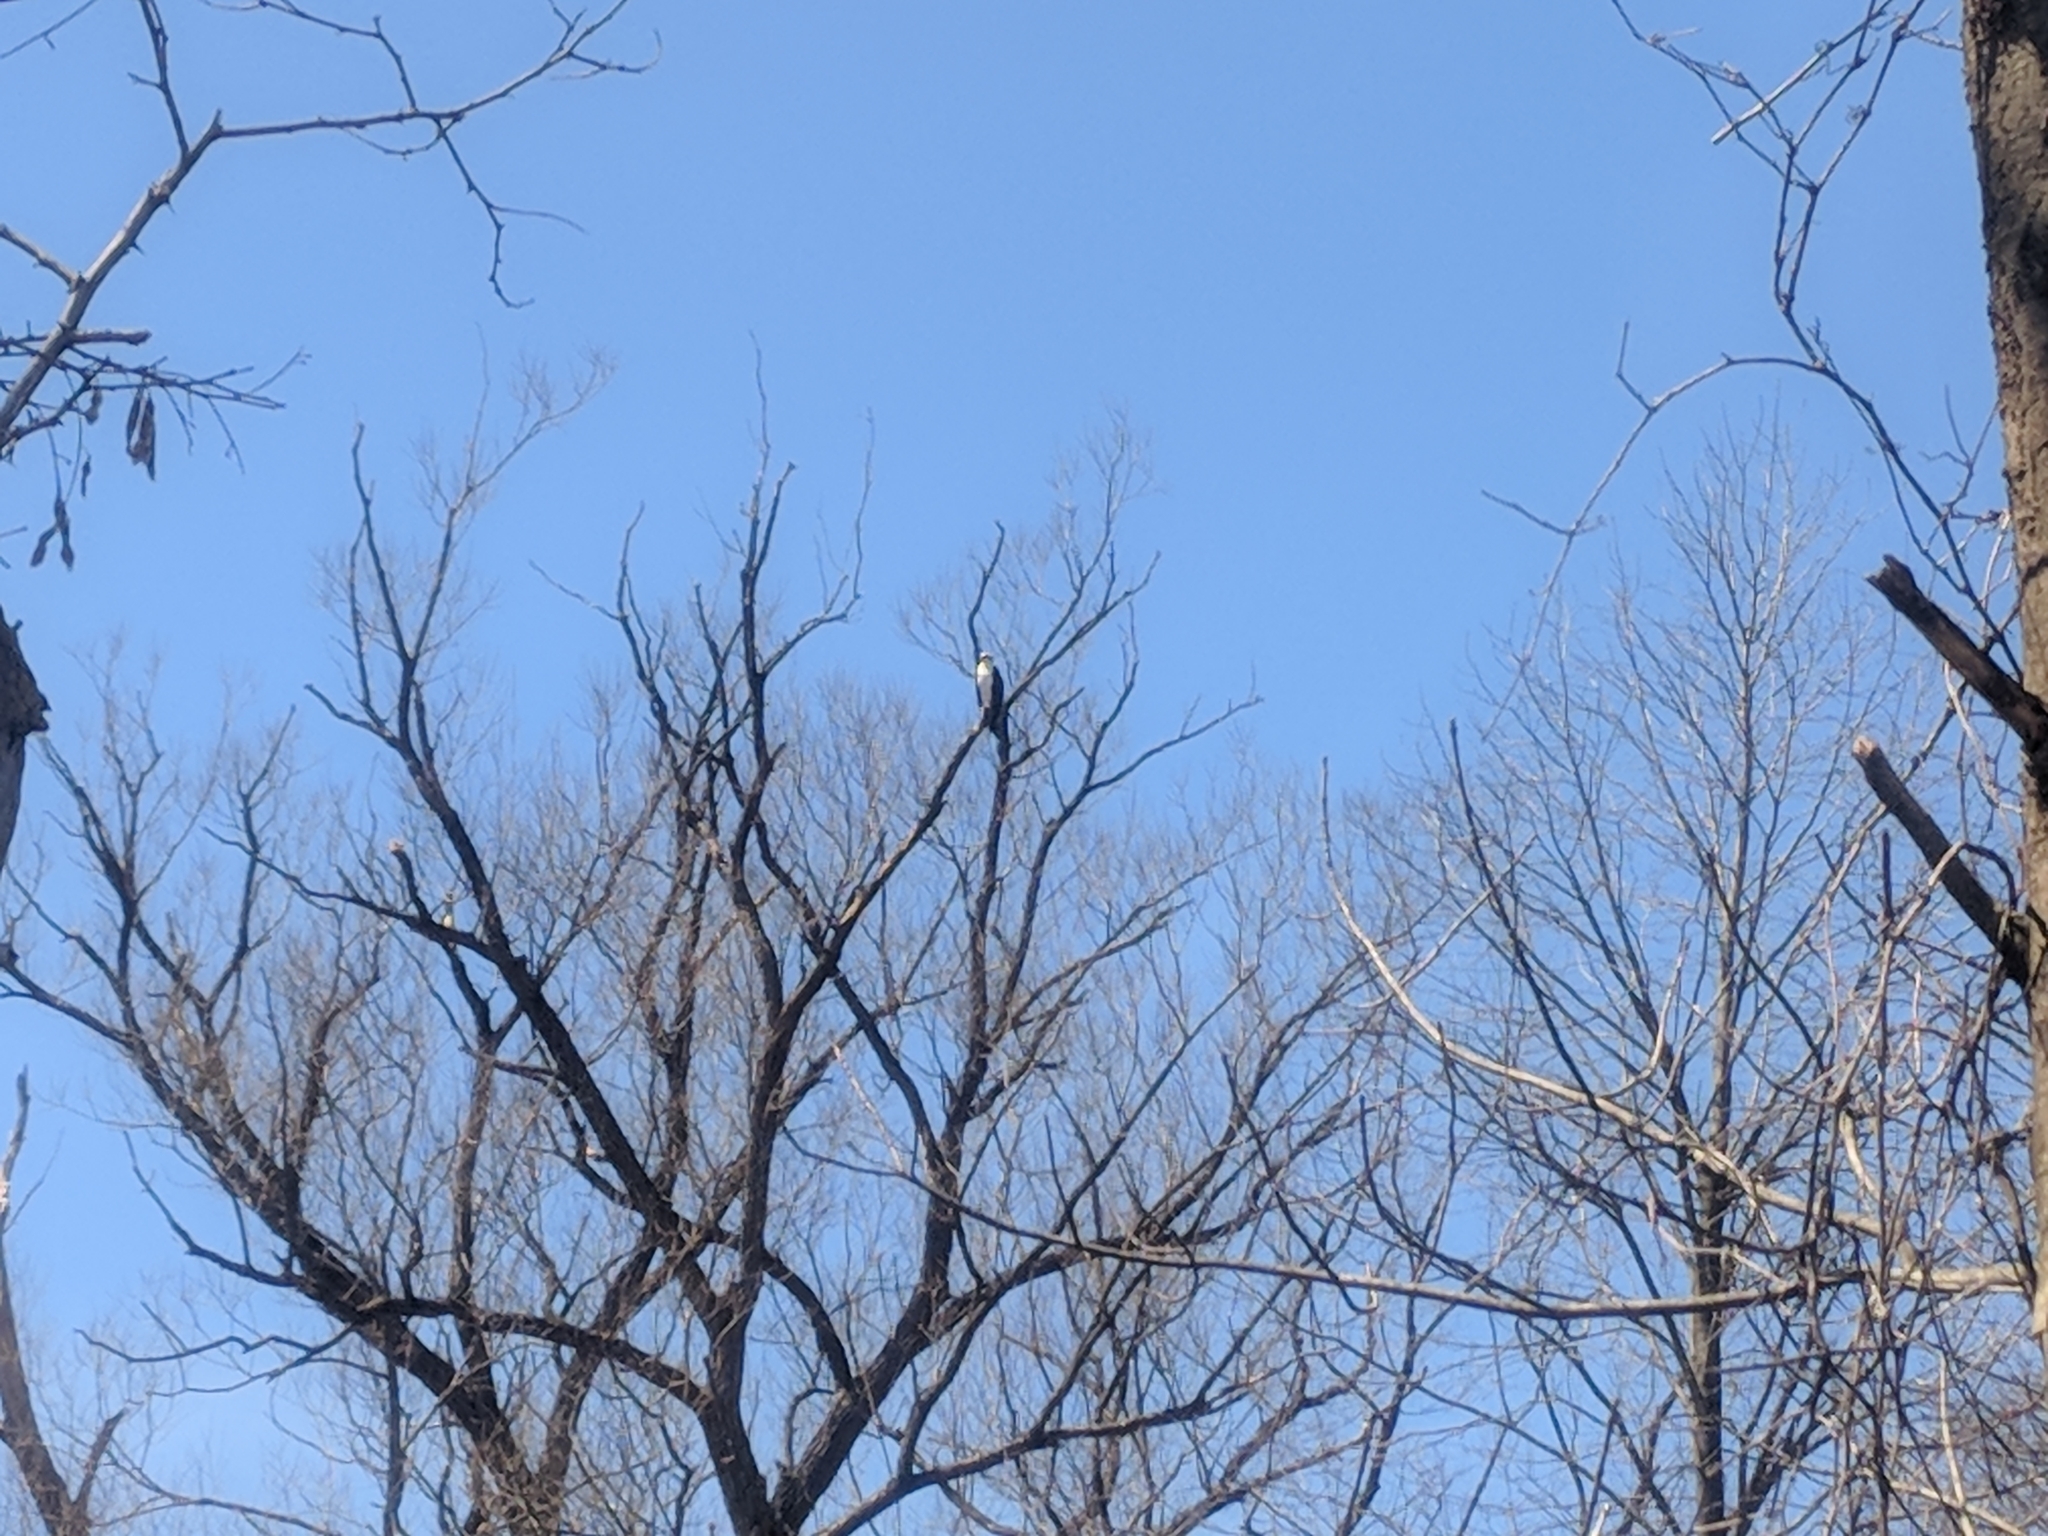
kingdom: Animalia
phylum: Chordata
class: Aves
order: Accipitriformes
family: Pandionidae
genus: Pandion
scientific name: Pandion haliaetus
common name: Osprey
